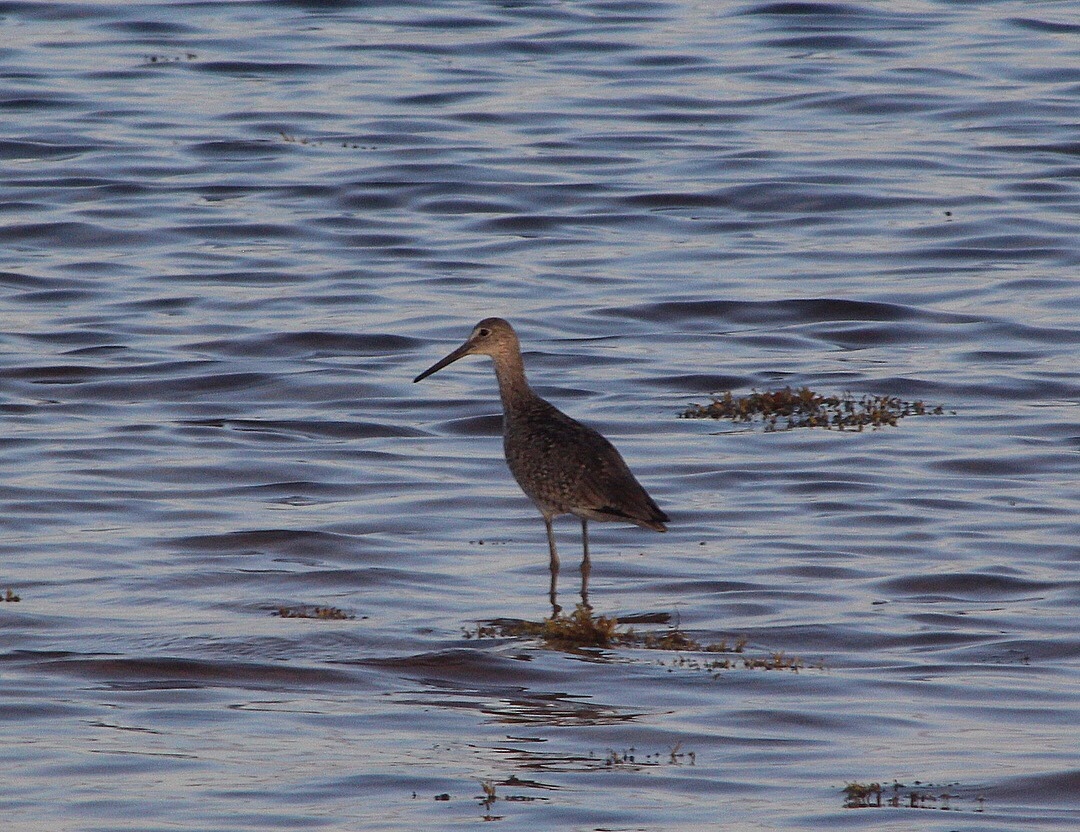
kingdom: Animalia
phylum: Chordata
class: Aves
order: Charadriiformes
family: Scolopacidae
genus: Tringa
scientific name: Tringa semipalmata
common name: Willet
